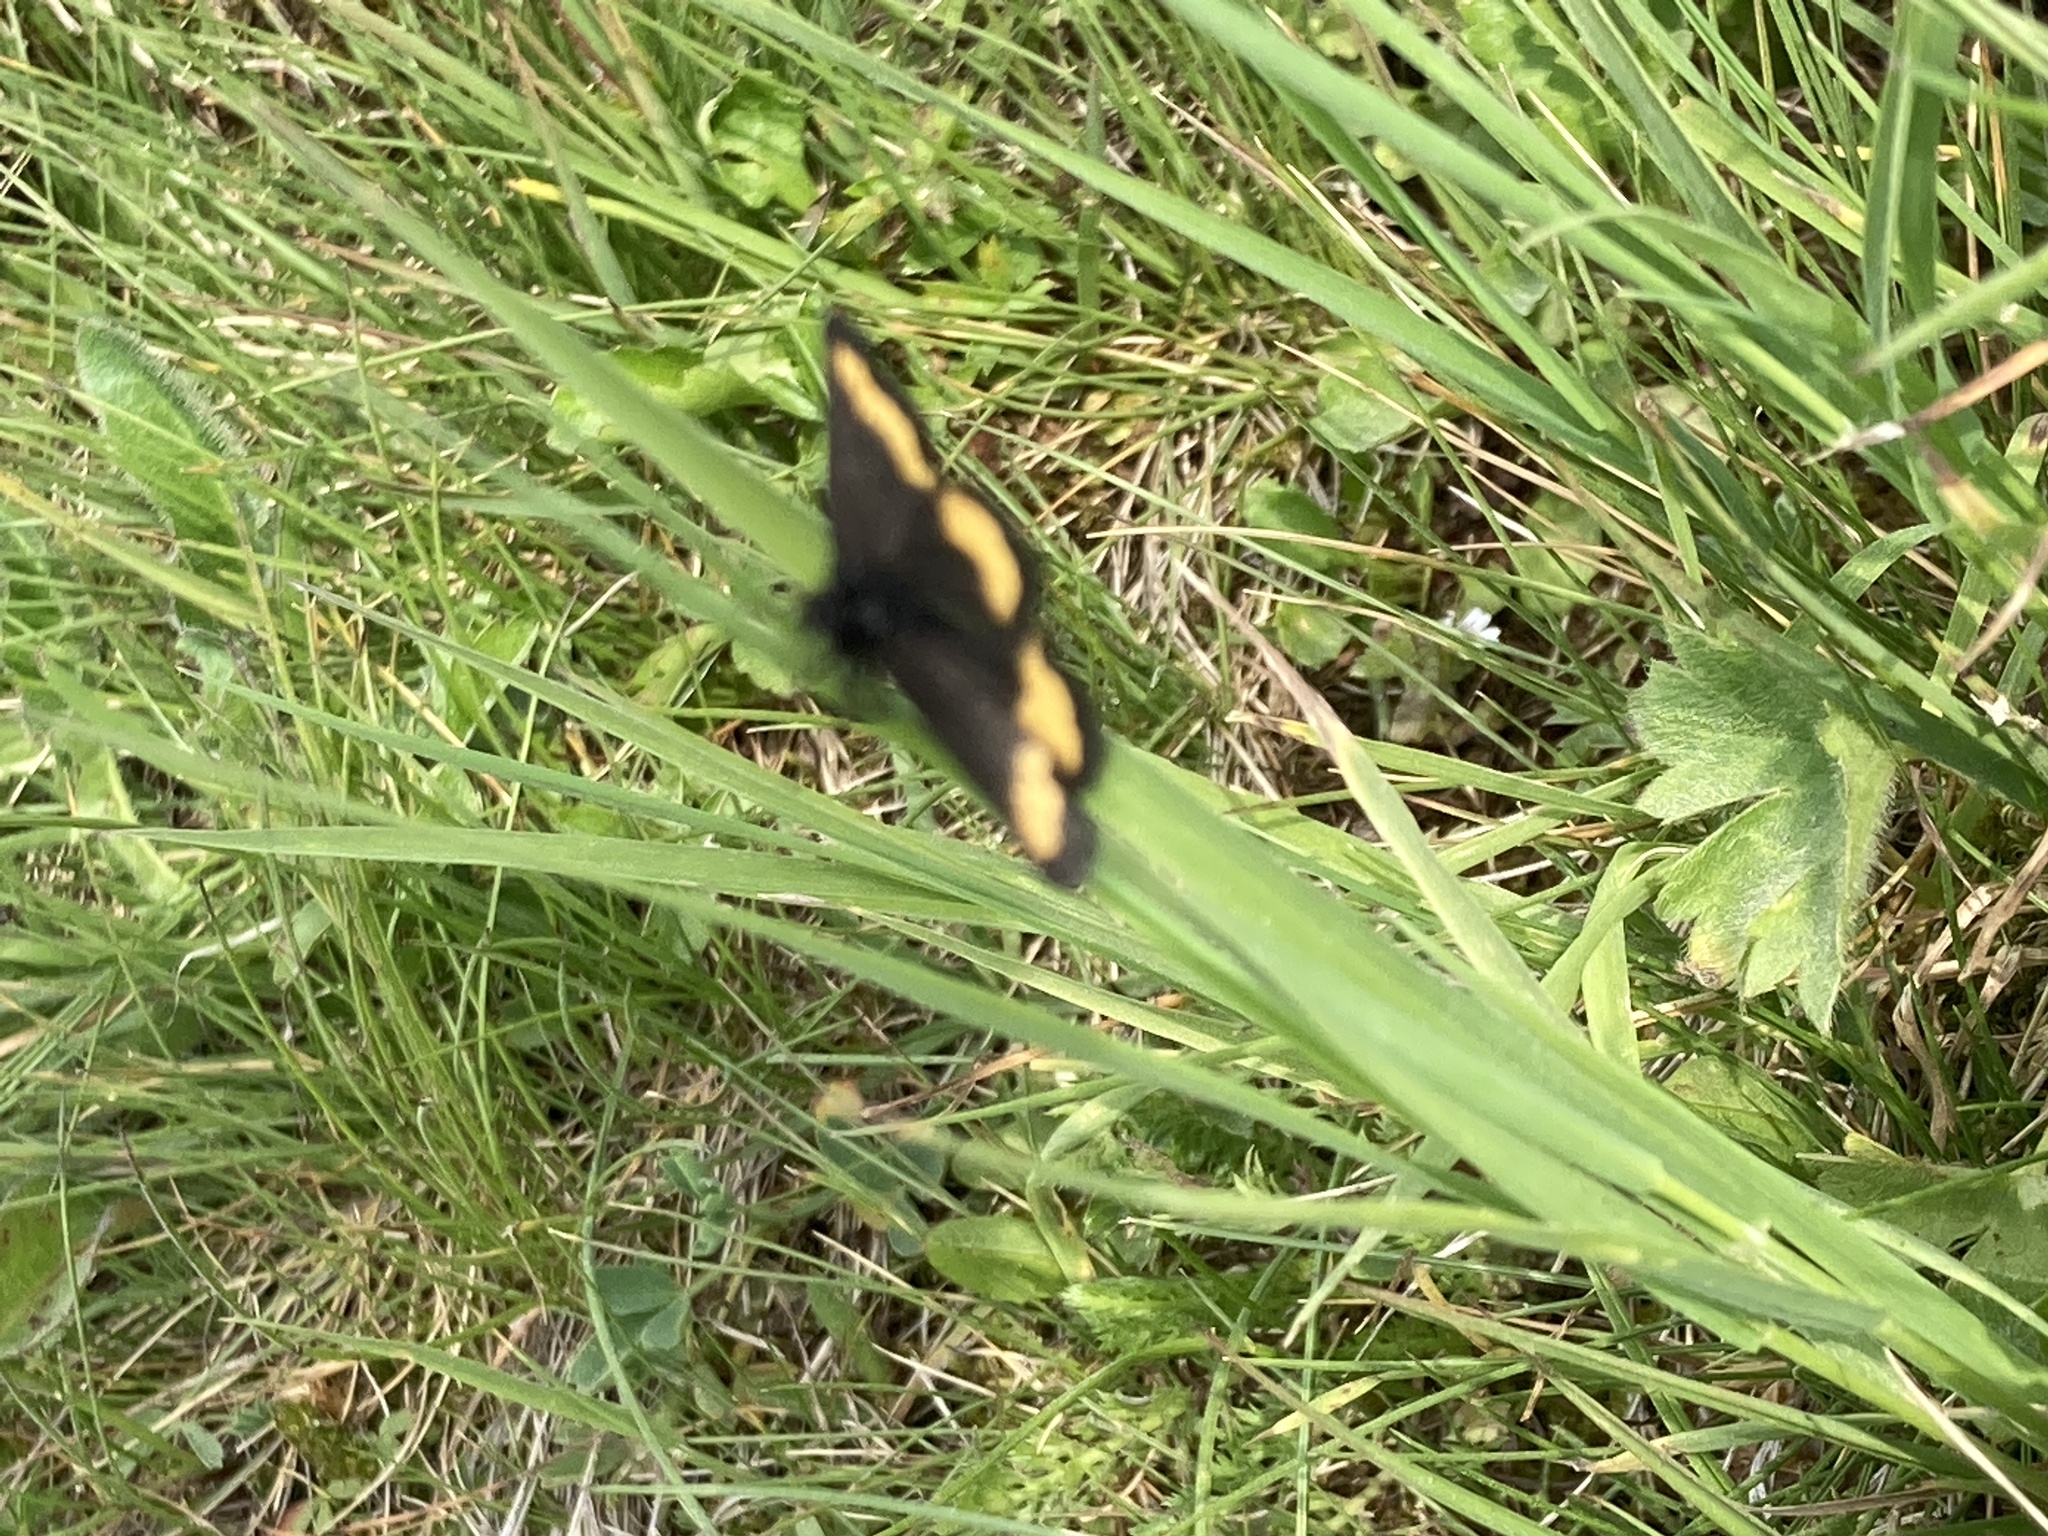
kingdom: Animalia
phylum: Arthropoda
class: Insecta
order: Lepidoptera
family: Geometridae
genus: Psodos
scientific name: Psodos quadrifaria
